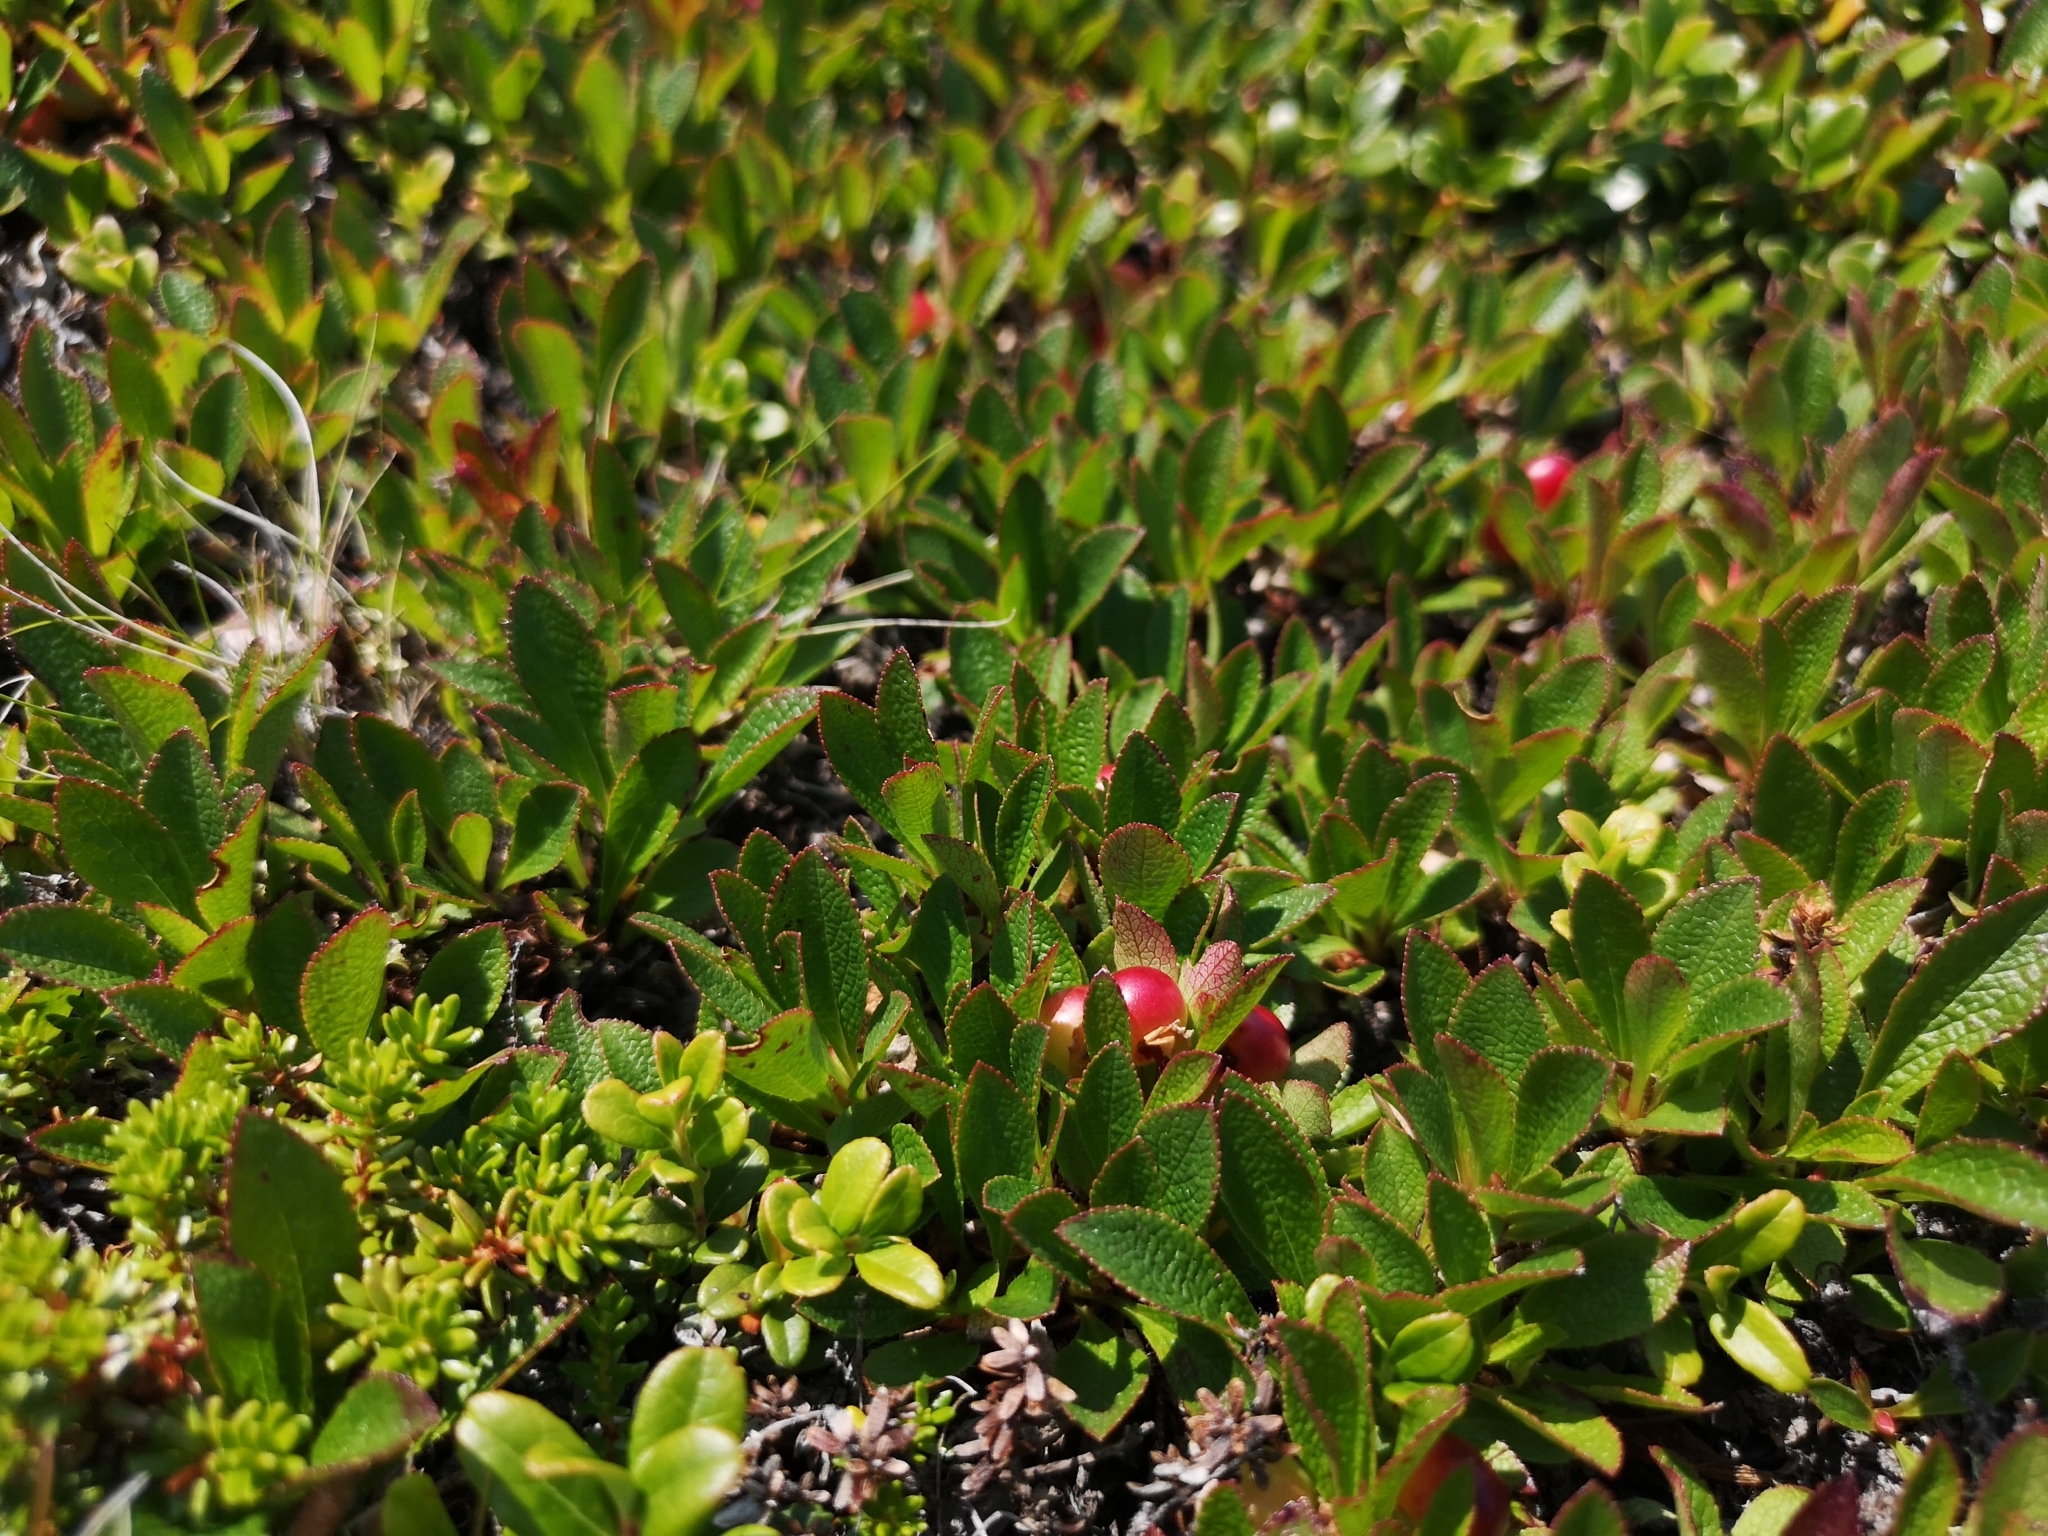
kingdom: Plantae
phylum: Tracheophyta
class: Magnoliopsida
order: Ericales
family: Ericaceae
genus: Arctostaphylos
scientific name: Arctostaphylos alpinus
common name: Alpine bearberry
